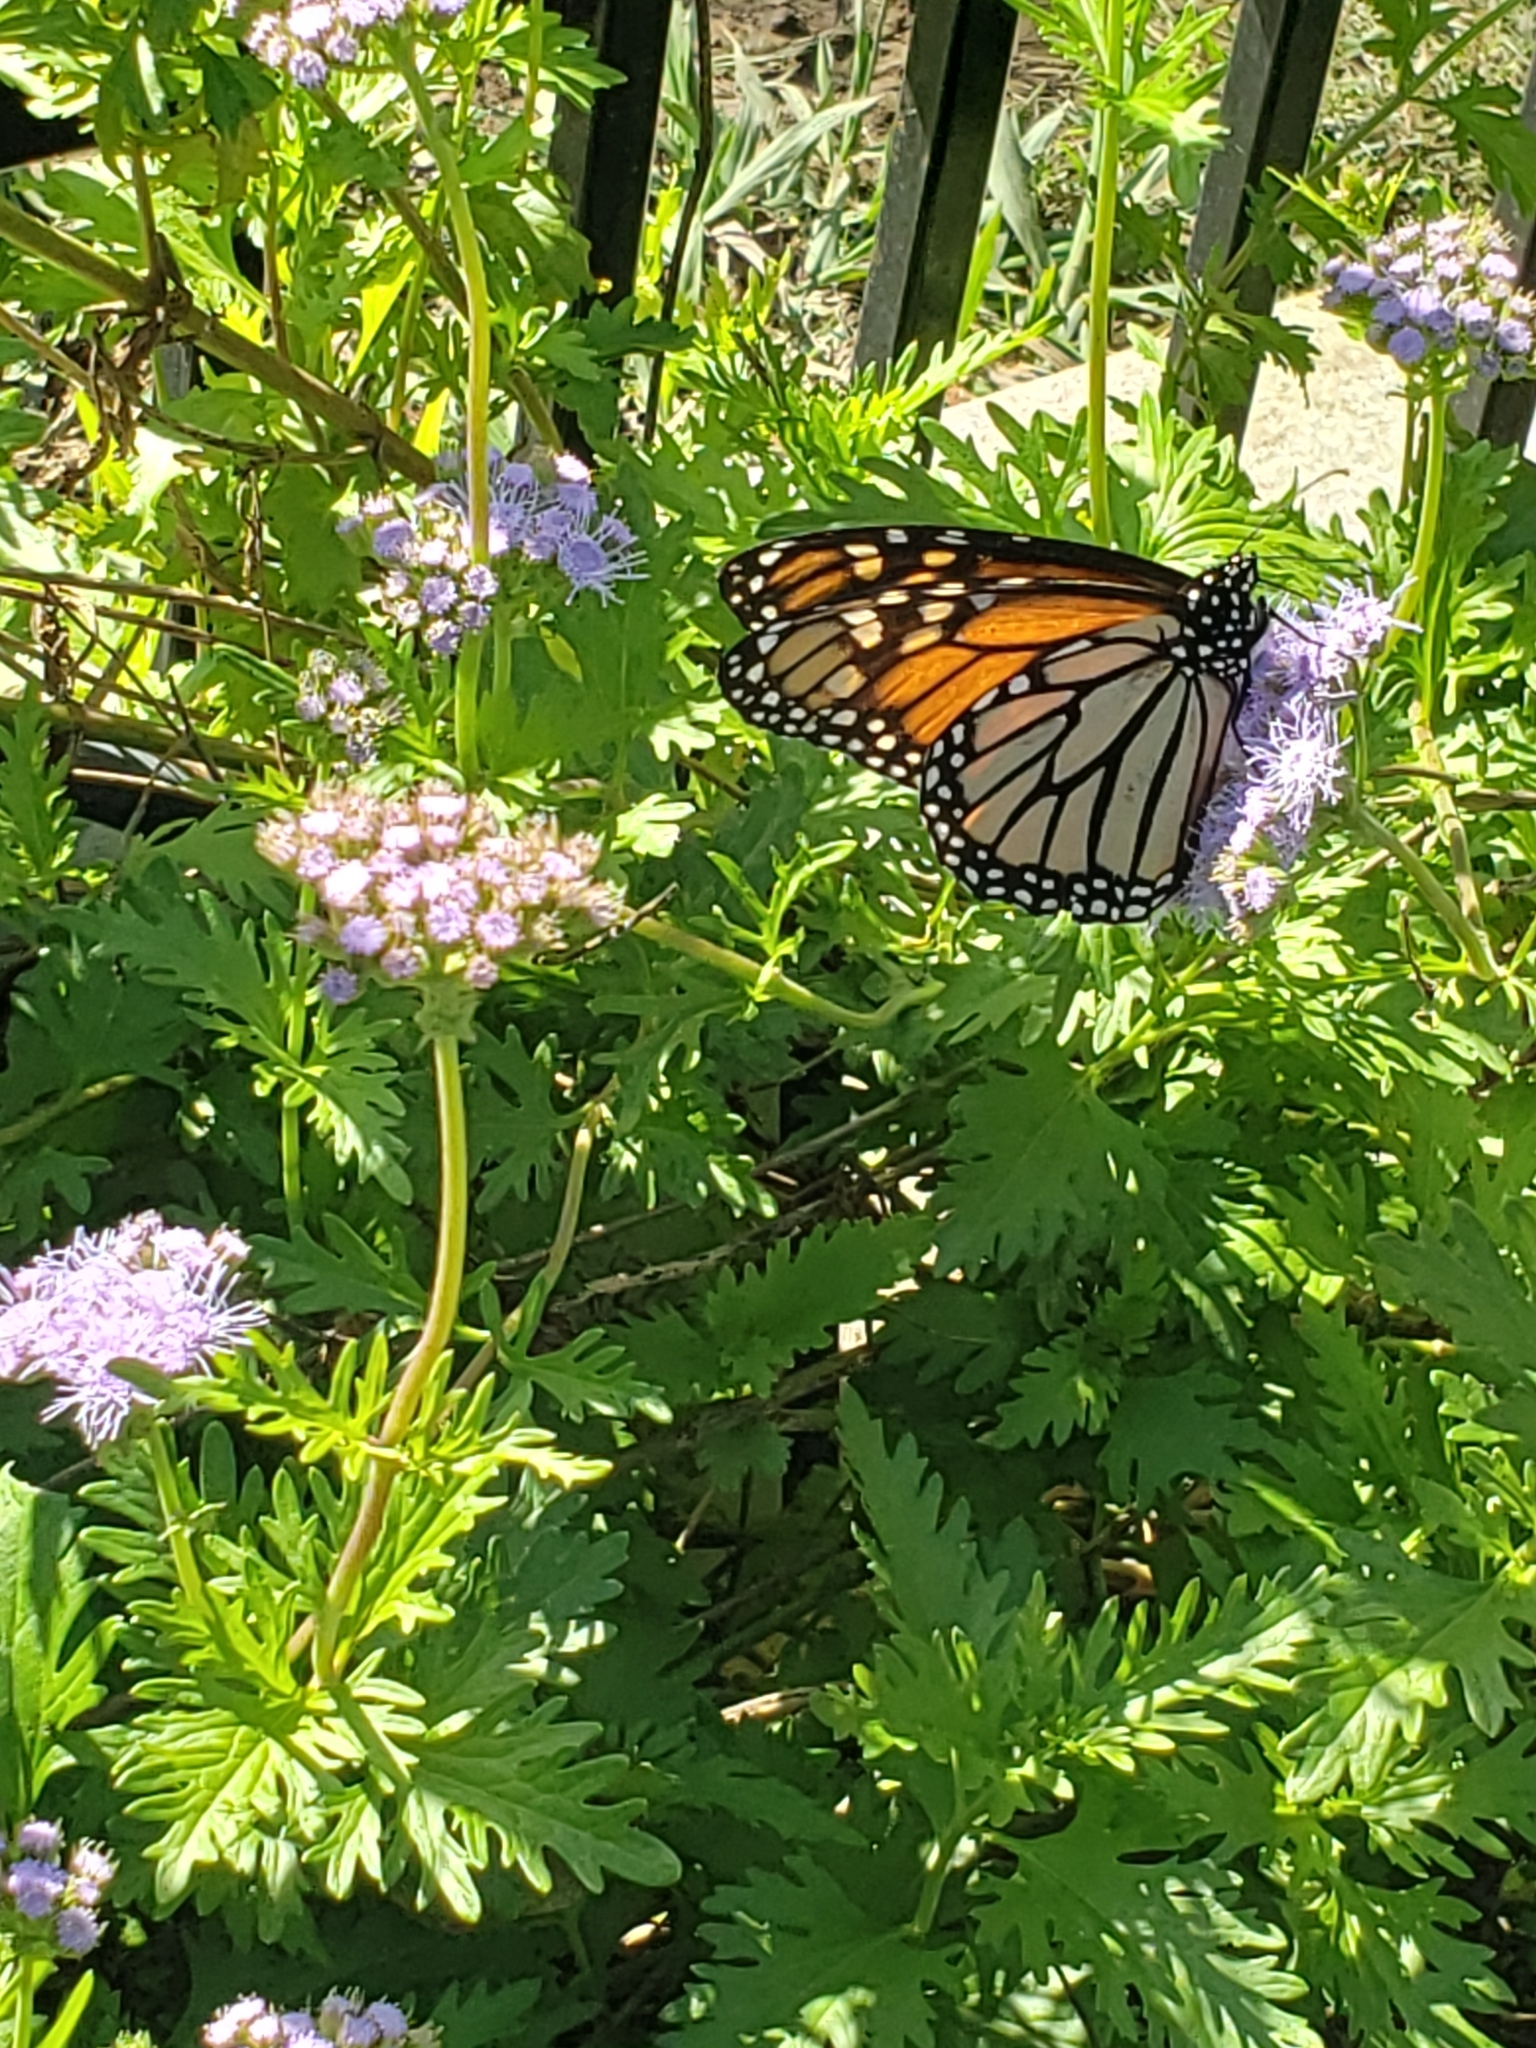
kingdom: Animalia
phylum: Arthropoda
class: Insecta
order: Lepidoptera
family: Nymphalidae
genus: Danaus
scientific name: Danaus plexippus
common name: Monarch
